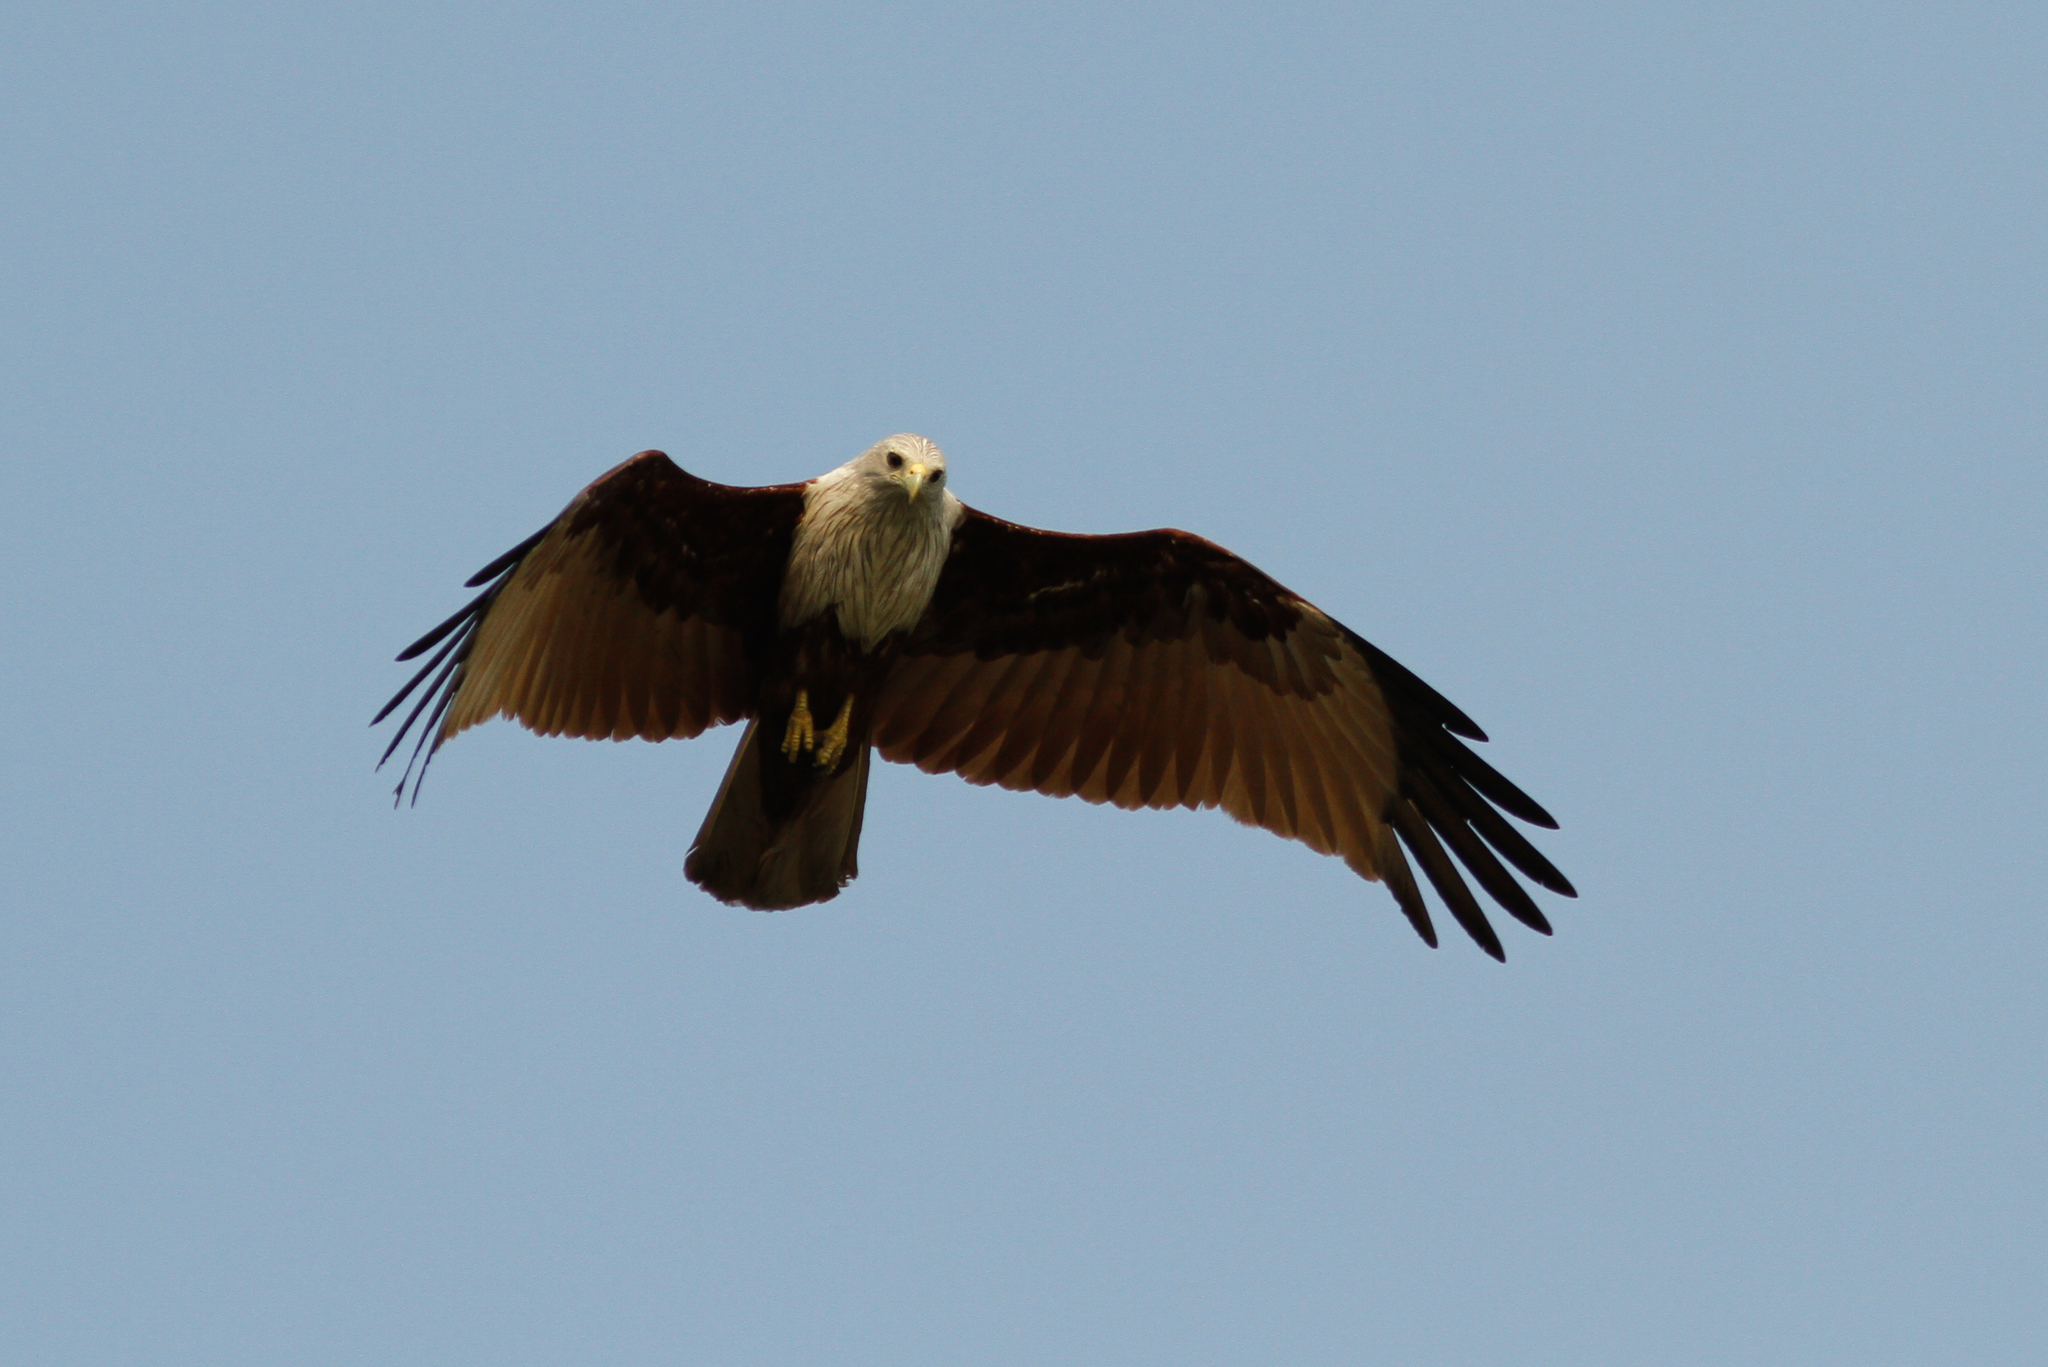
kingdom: Animalia
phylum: Chordata
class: Aves
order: Accipitriformes
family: Accipitridae
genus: Haliastur
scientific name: Haliastur indus
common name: Brahminy kite
